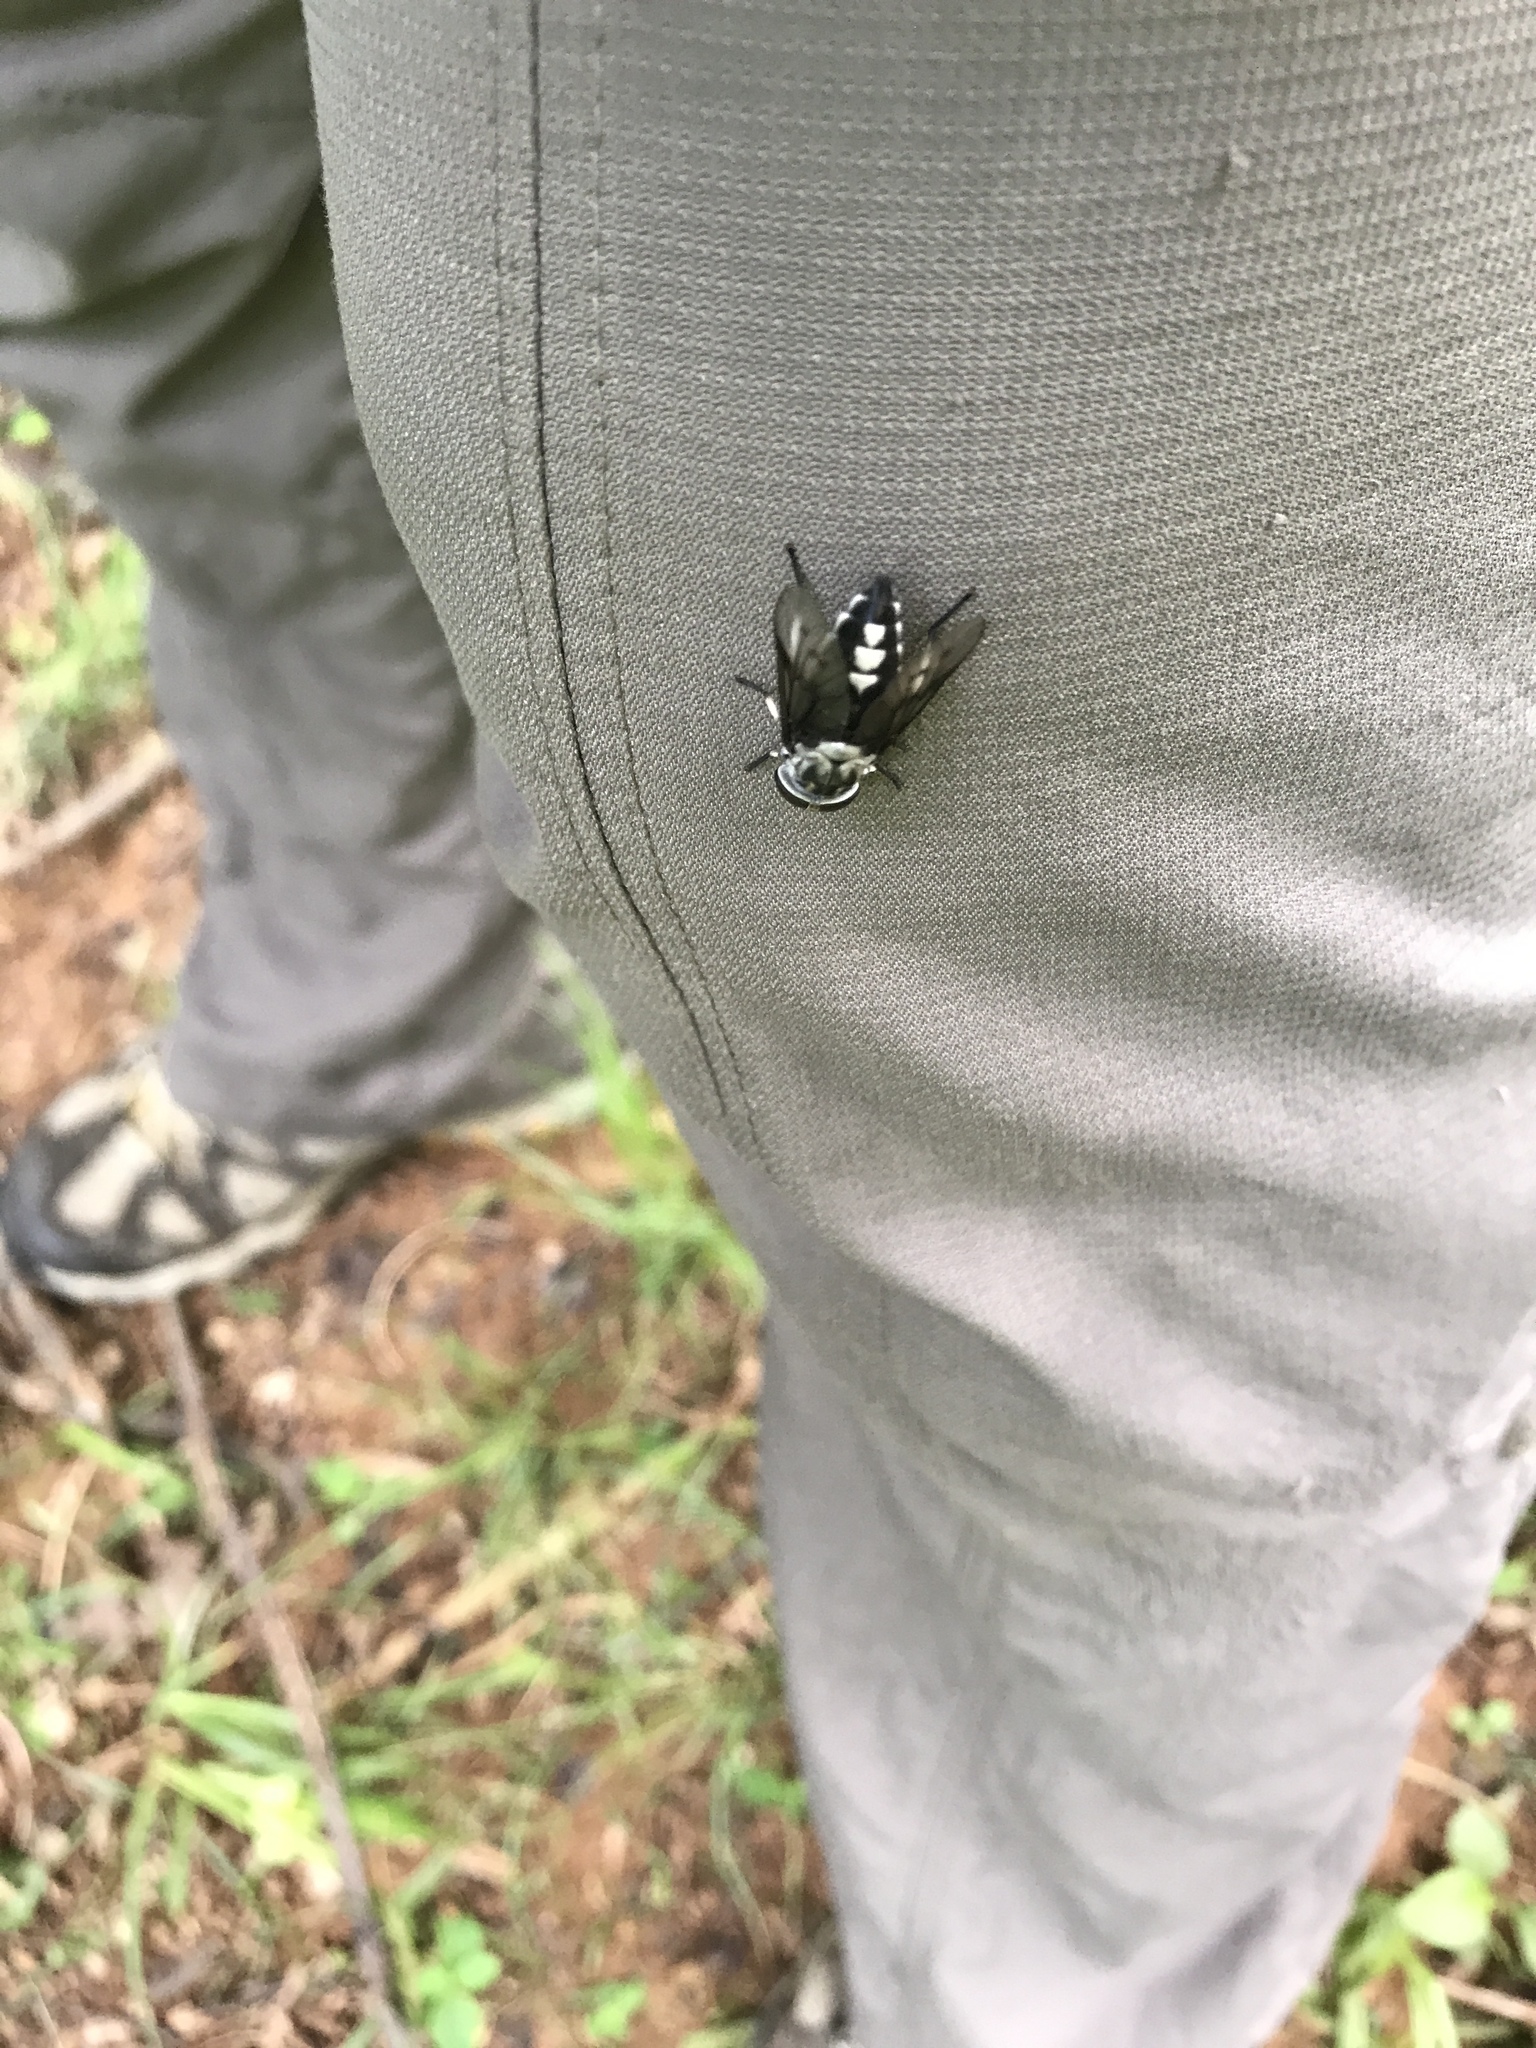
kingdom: Animalia
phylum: Arthropoda
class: Insecta
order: Diptera
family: Tabanidae
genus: Tabanus
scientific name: Tabanus trimaculatus
